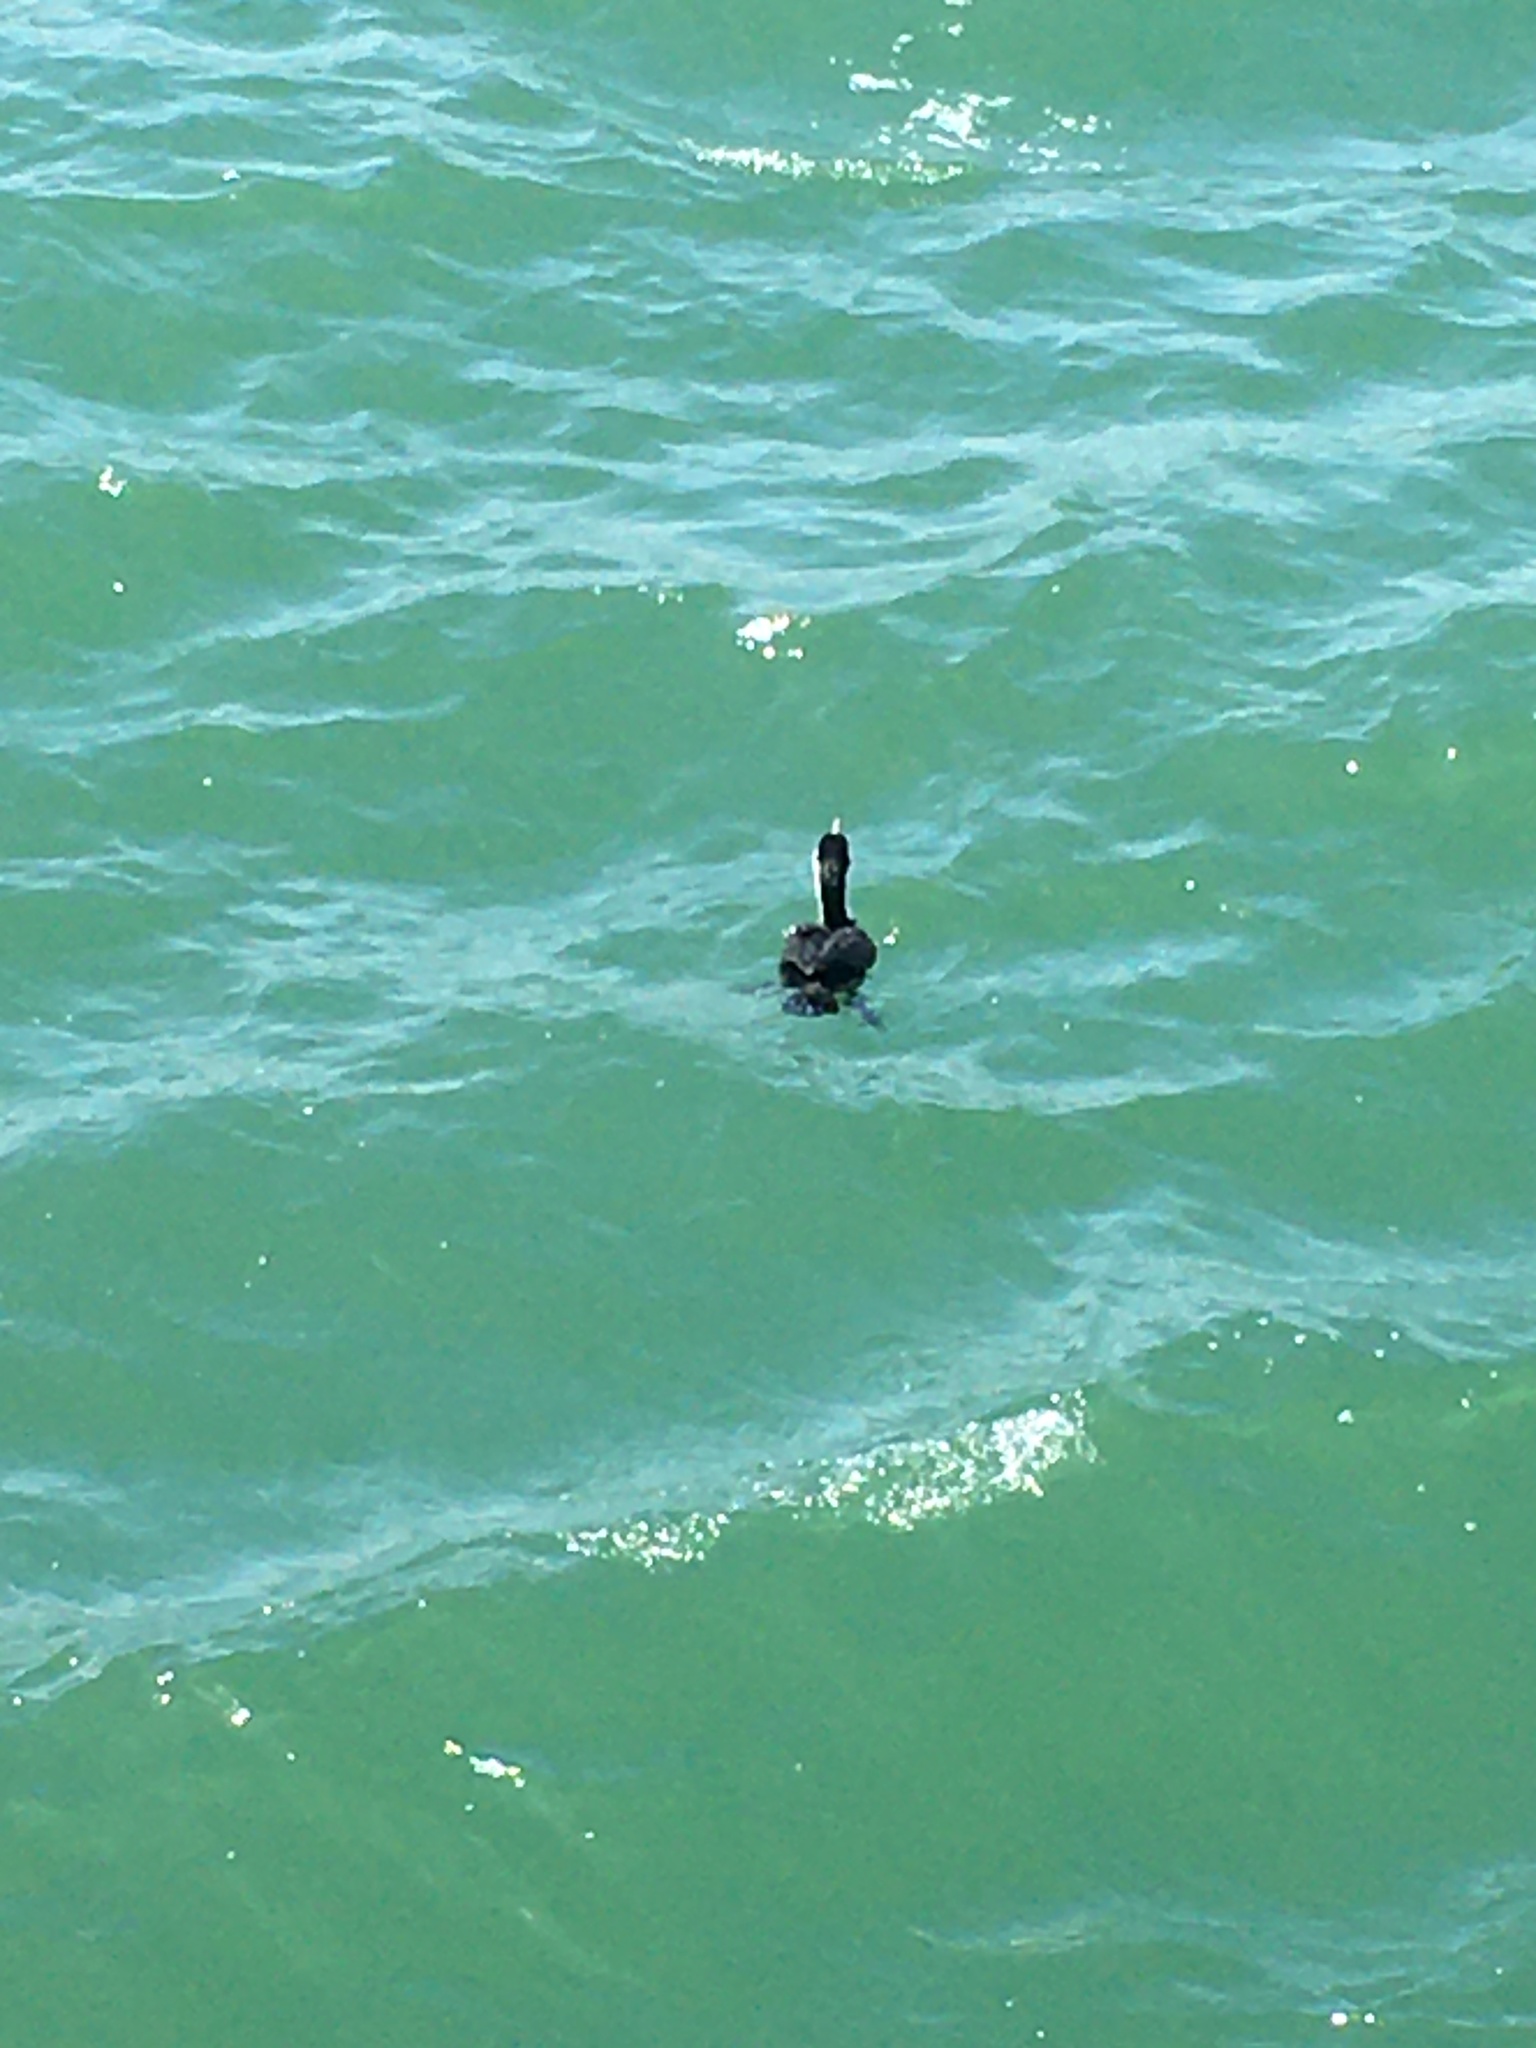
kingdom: Animalia
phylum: Chordata
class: Aves
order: Suliformes
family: Phalacrocoracidae
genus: Phalacrocorax
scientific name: Phalacrocorax varius
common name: Pied cormorant
